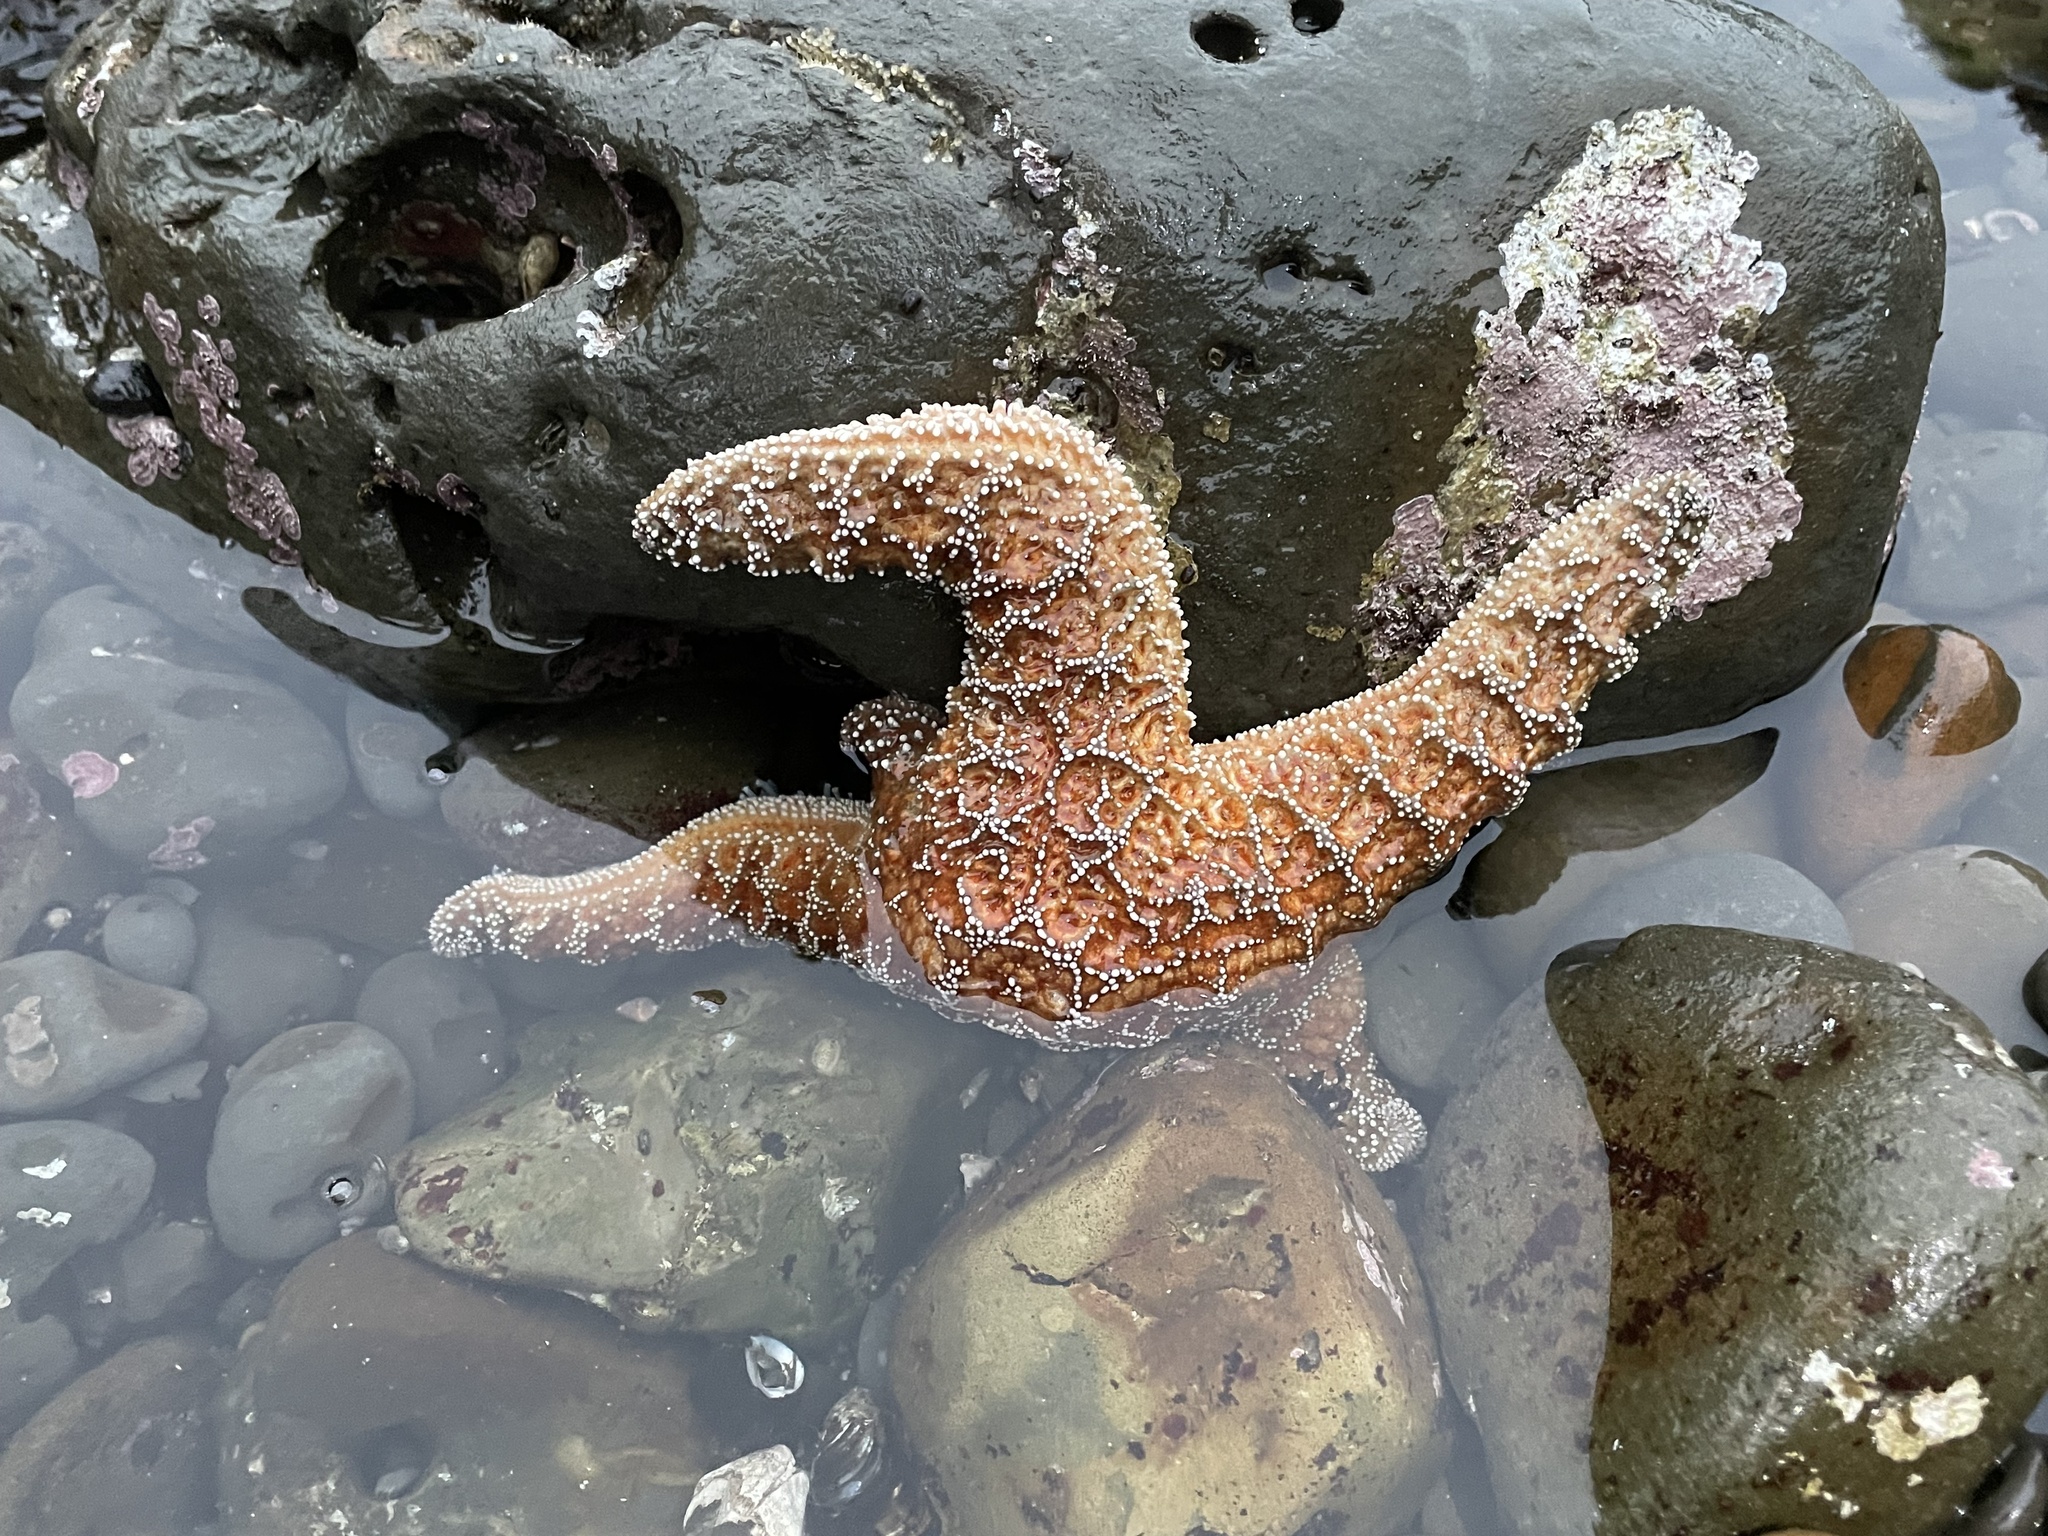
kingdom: Animalia
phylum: Echinodermata
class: Asteroidea
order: Forcipulatida
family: Asteriidae
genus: Pisaster
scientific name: Pisaster ochraceus
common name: Ochre stars
